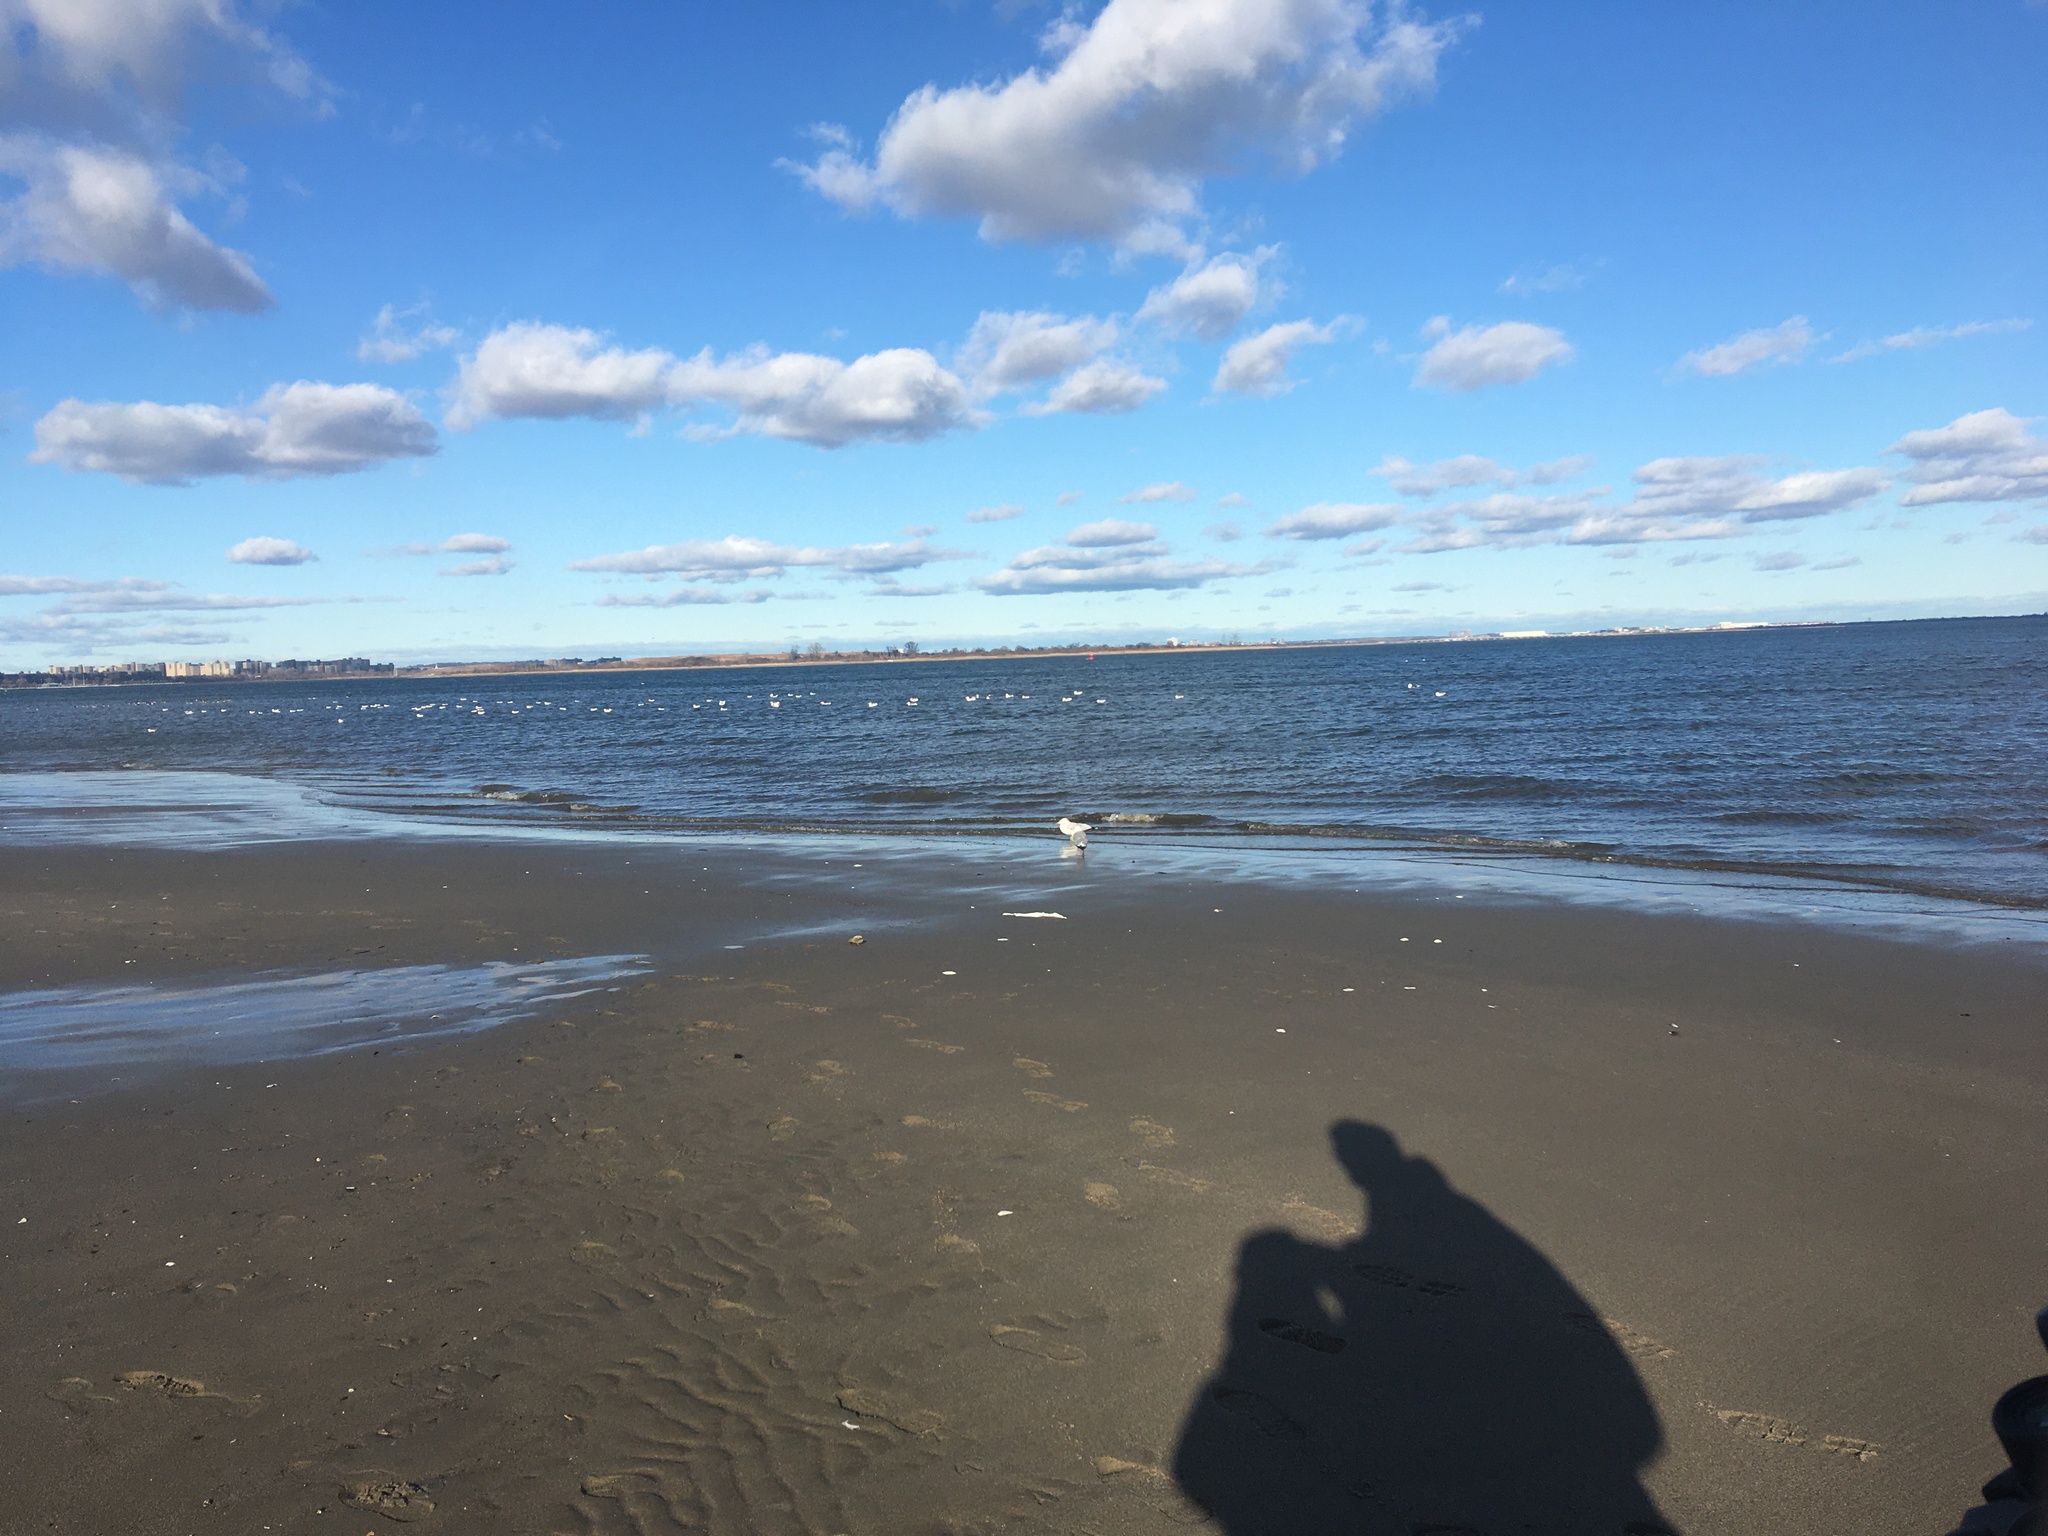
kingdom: Animalia
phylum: Chordata
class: Aves
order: Charadriiformes
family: Laridae
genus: Larus
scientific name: Larus delawarensis
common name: Ring-billed gull
